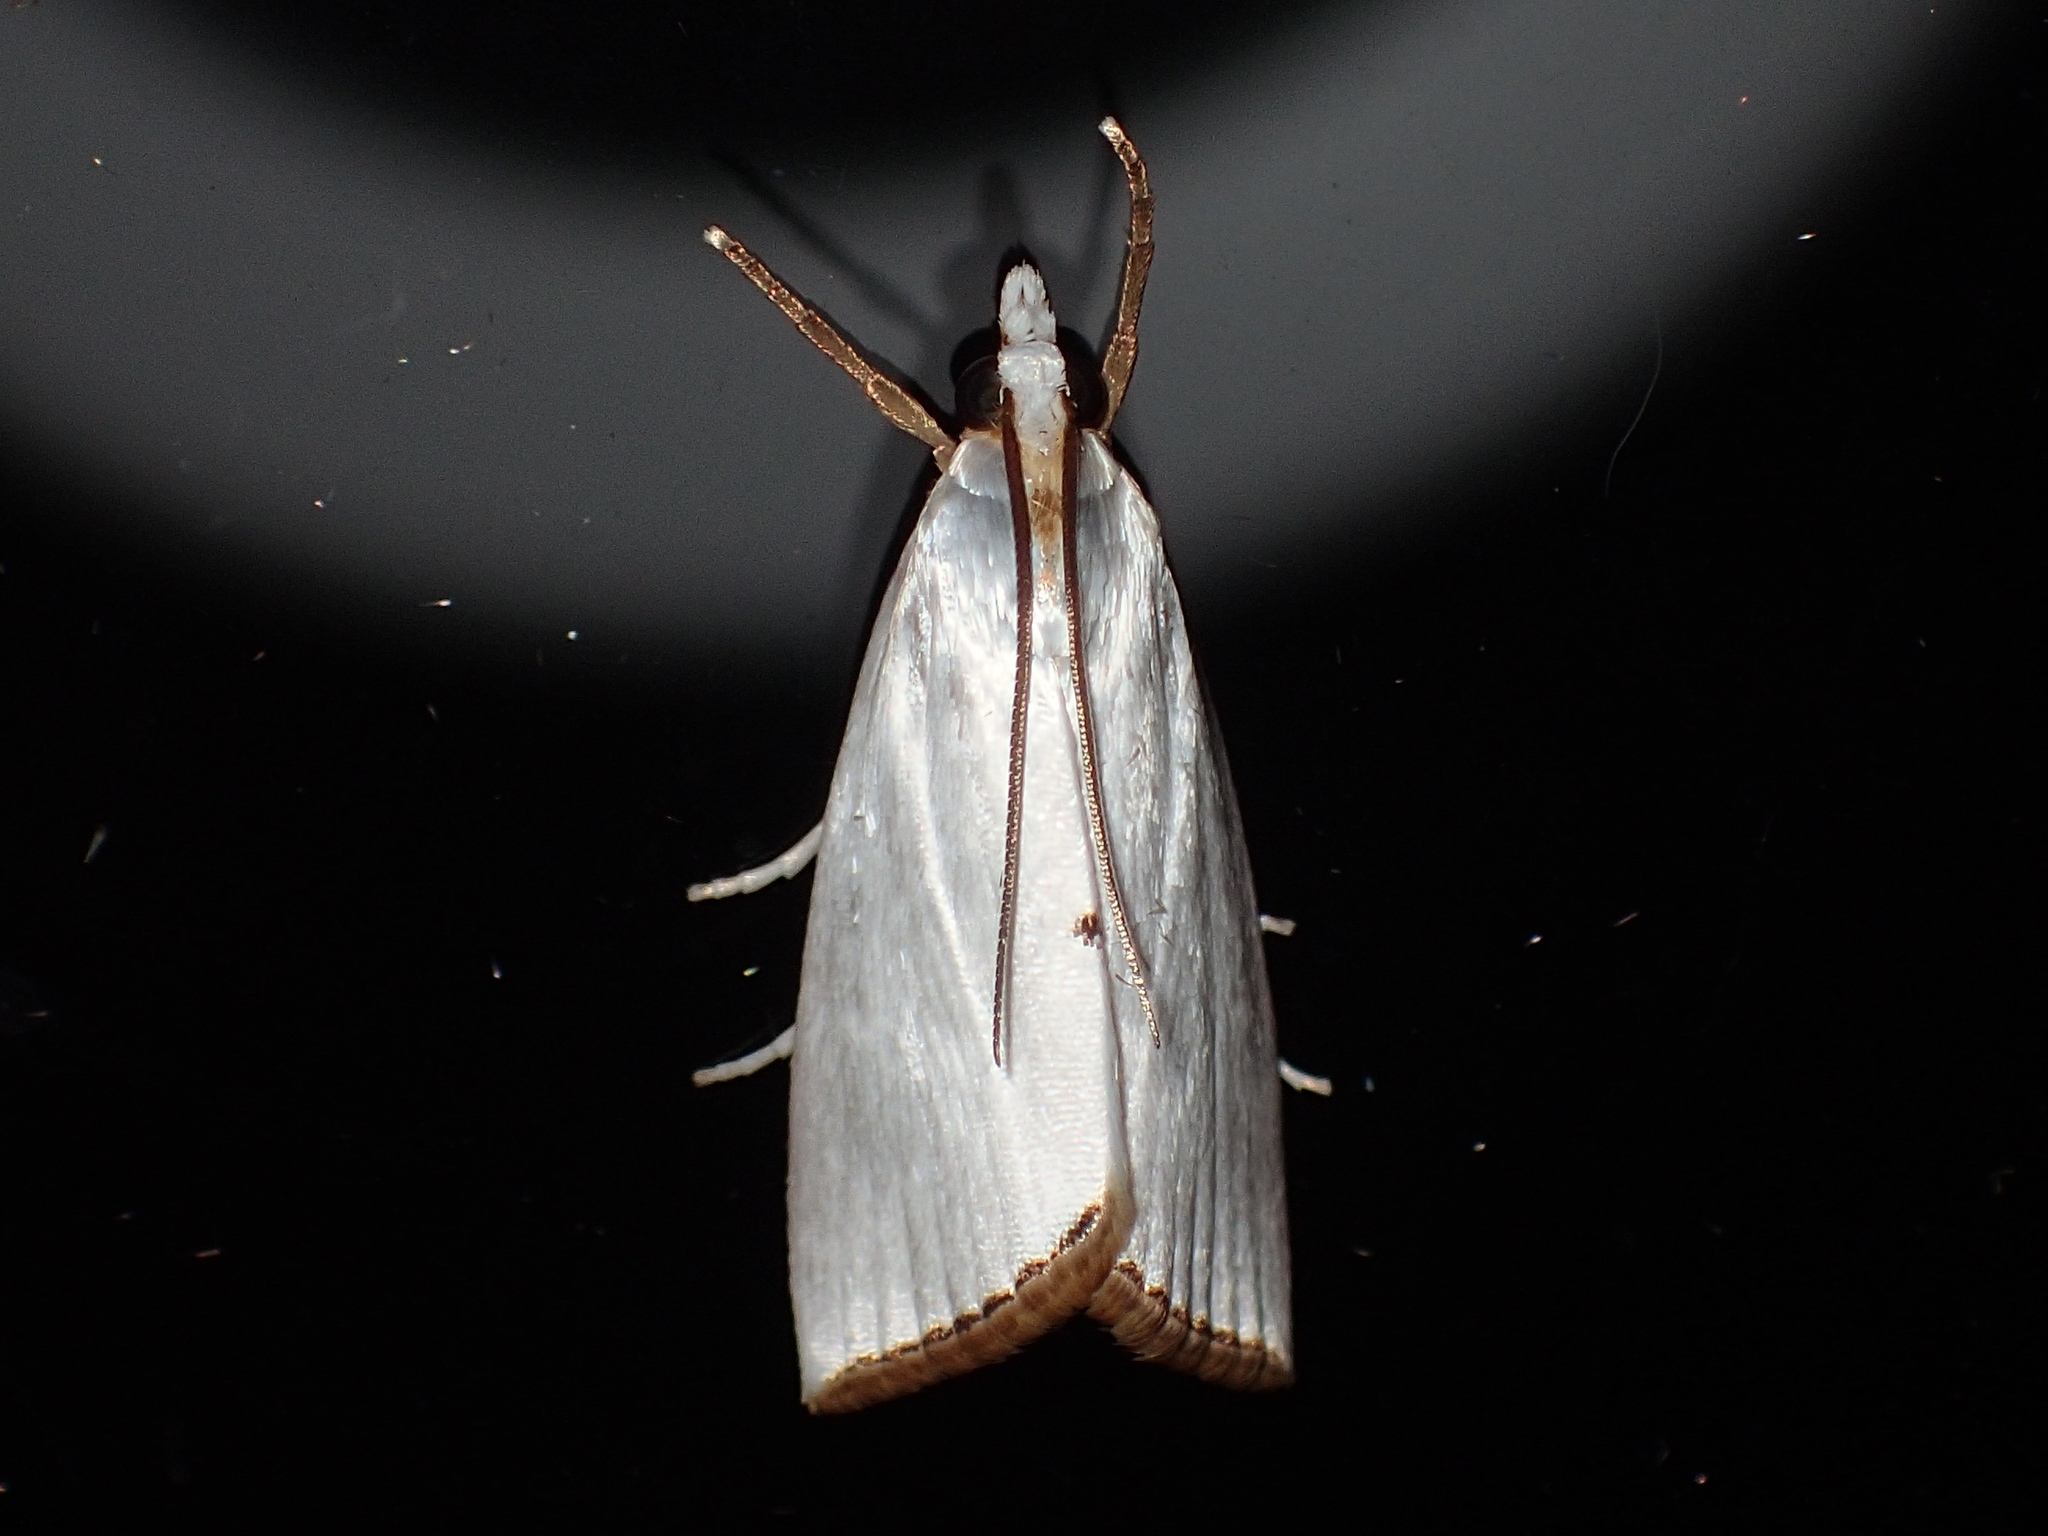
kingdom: Animalia
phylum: Arthropoda
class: Insecta
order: Lepidoptera
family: Crambidae
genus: Argyria
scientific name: Argyria nivalis
